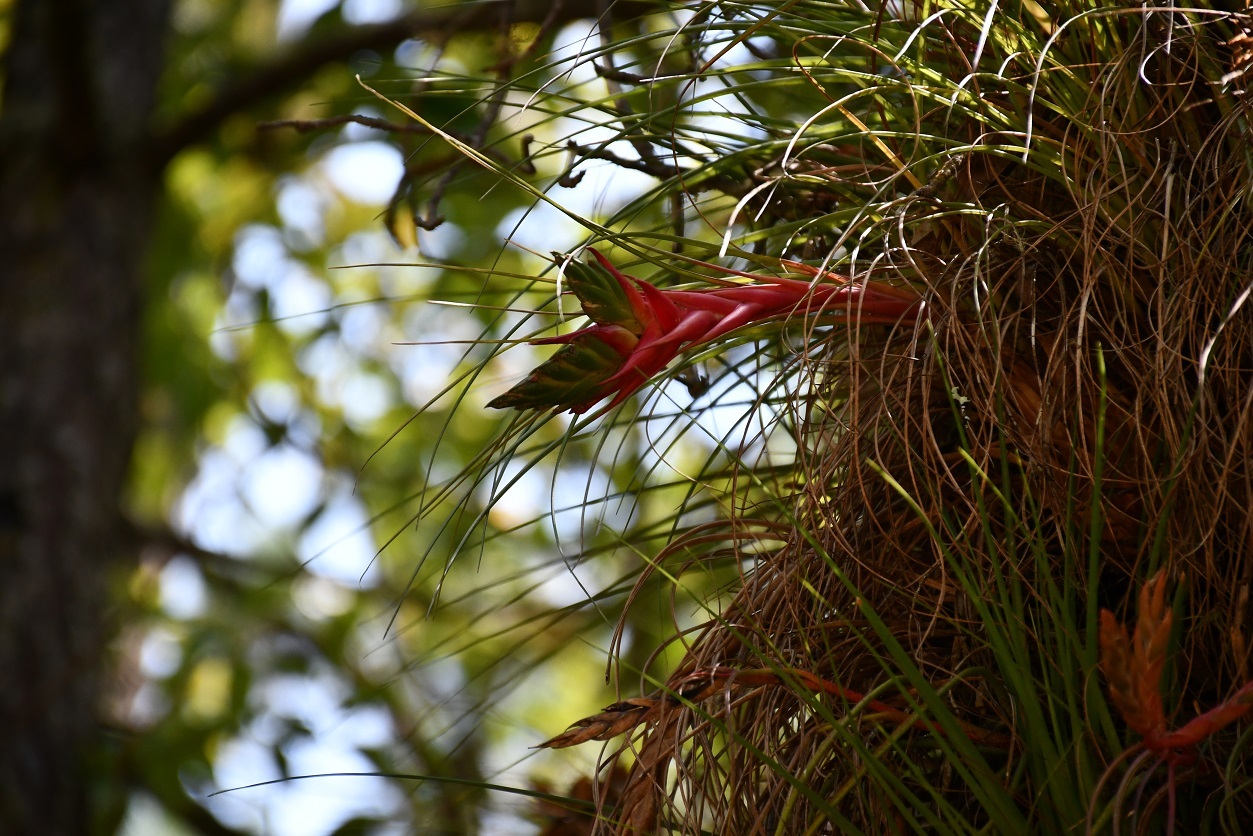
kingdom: Plantae
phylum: Tracheophyta
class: Liliopsida
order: Poales
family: Bromeliaceae
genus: Tillandsia
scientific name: Tillandsia punctulata
